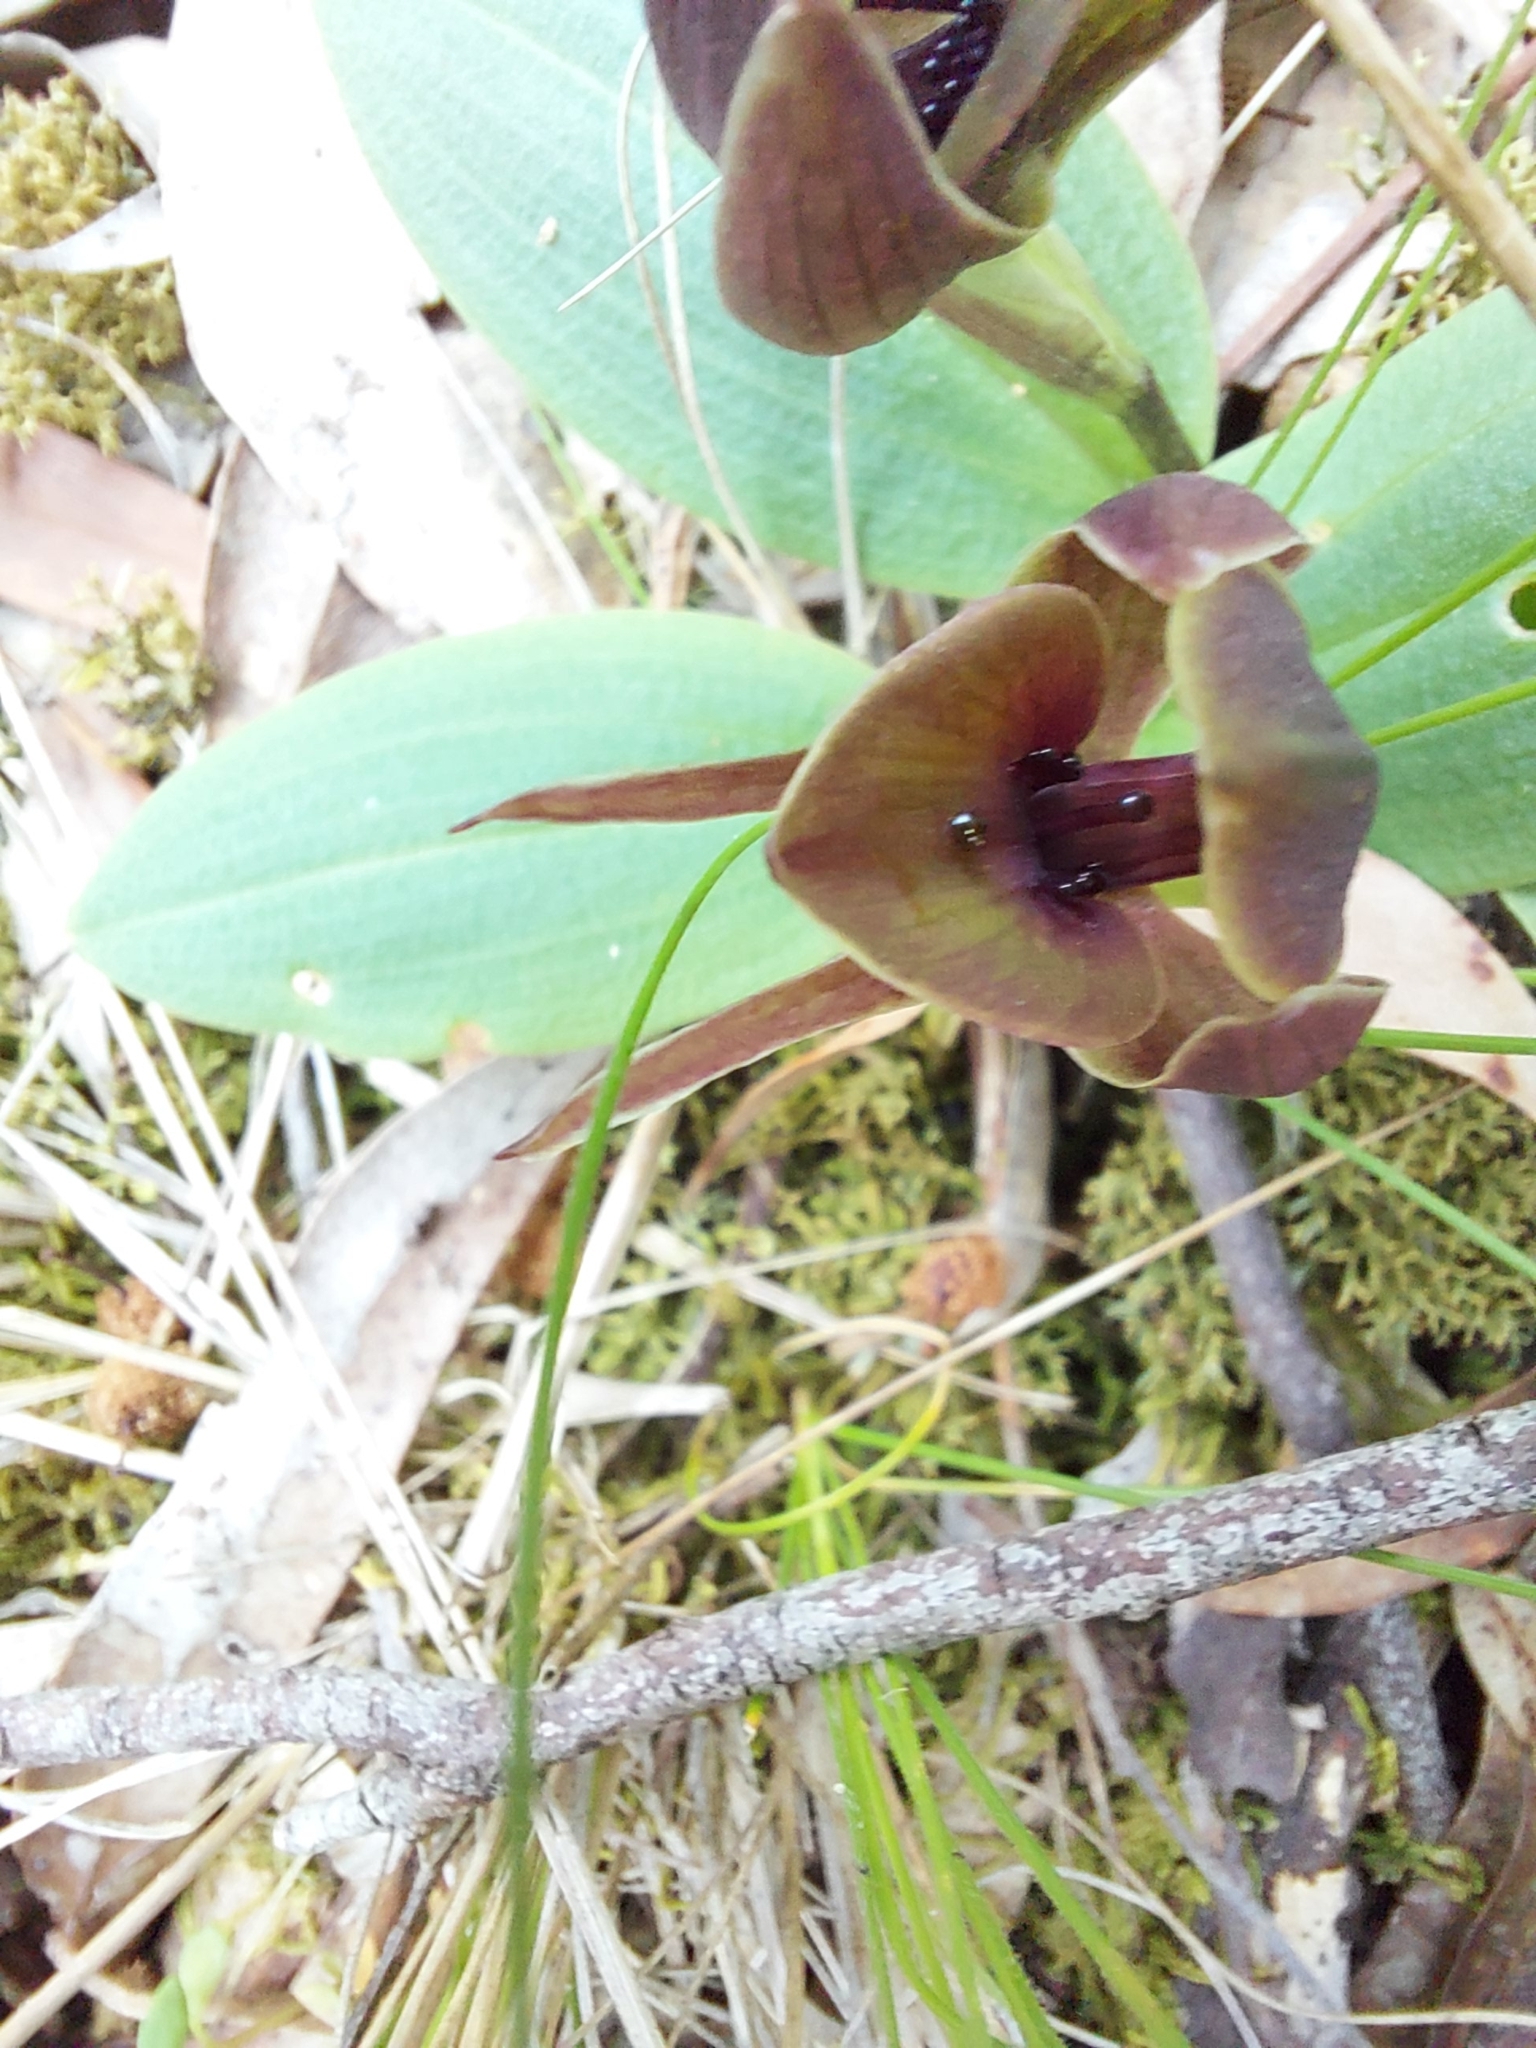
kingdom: Plantae
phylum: Tracheophyta
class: Liliopsida
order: Asparagales
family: Orchidaceae
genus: Chiloglottis
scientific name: Chiloglottis valida
